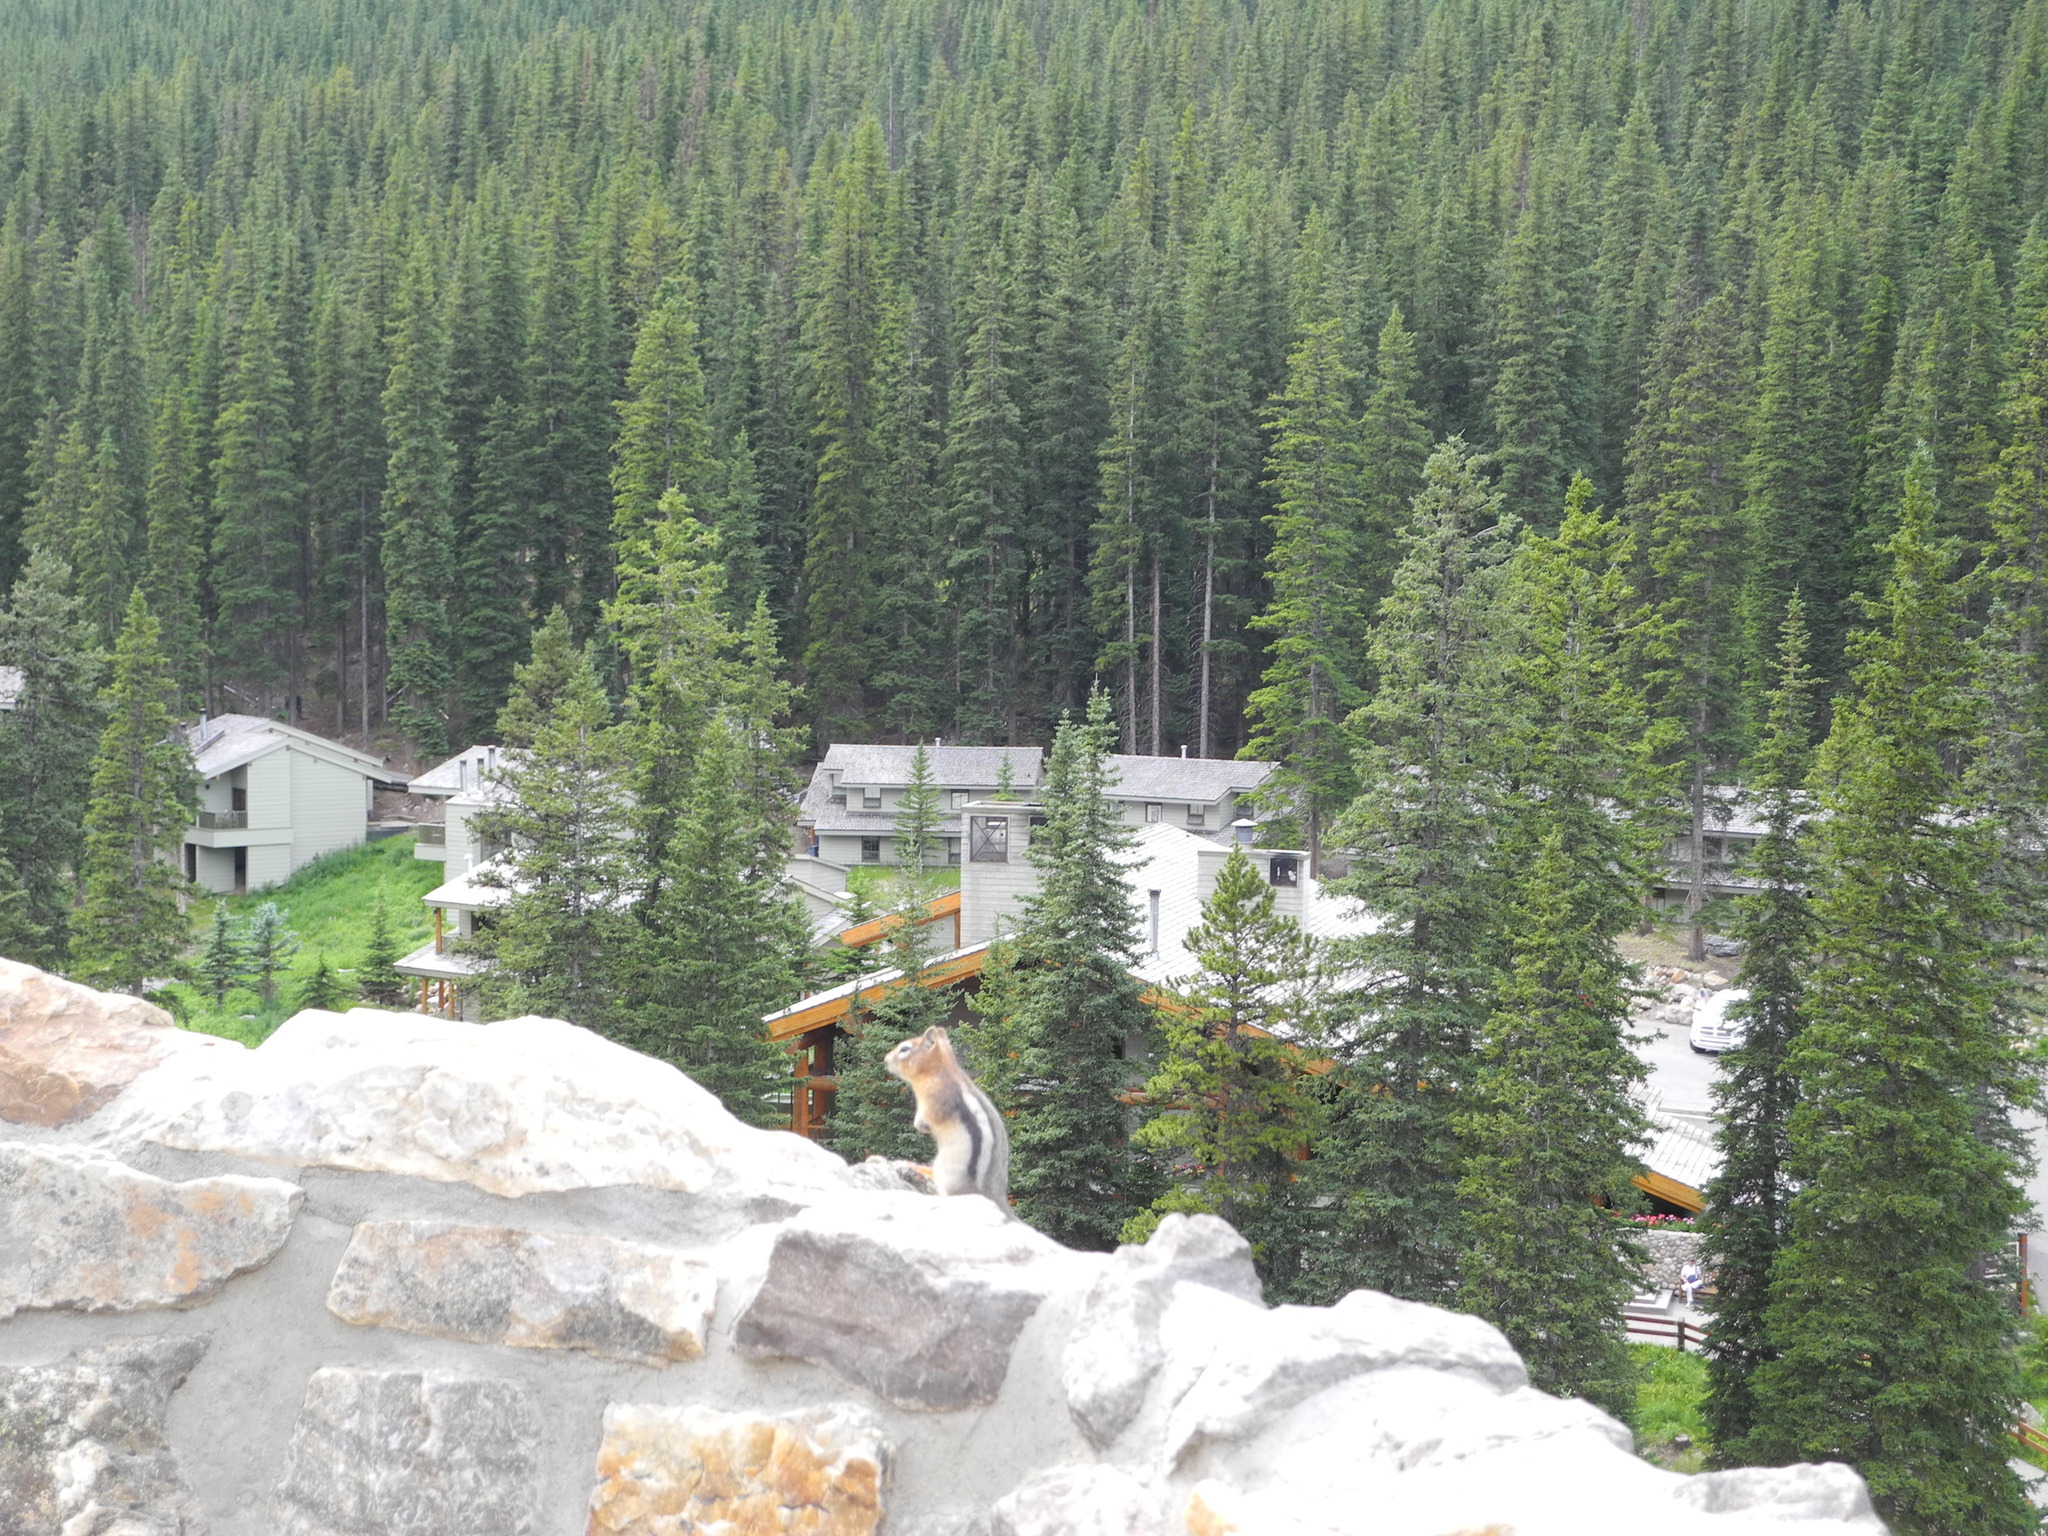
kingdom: Animalia
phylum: Chordata
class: Mammalia
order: Rodentia
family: Sciuridae
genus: Callospermophilus
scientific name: Callospermophilus lateralis
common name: Golden-mantled ground squirrel
